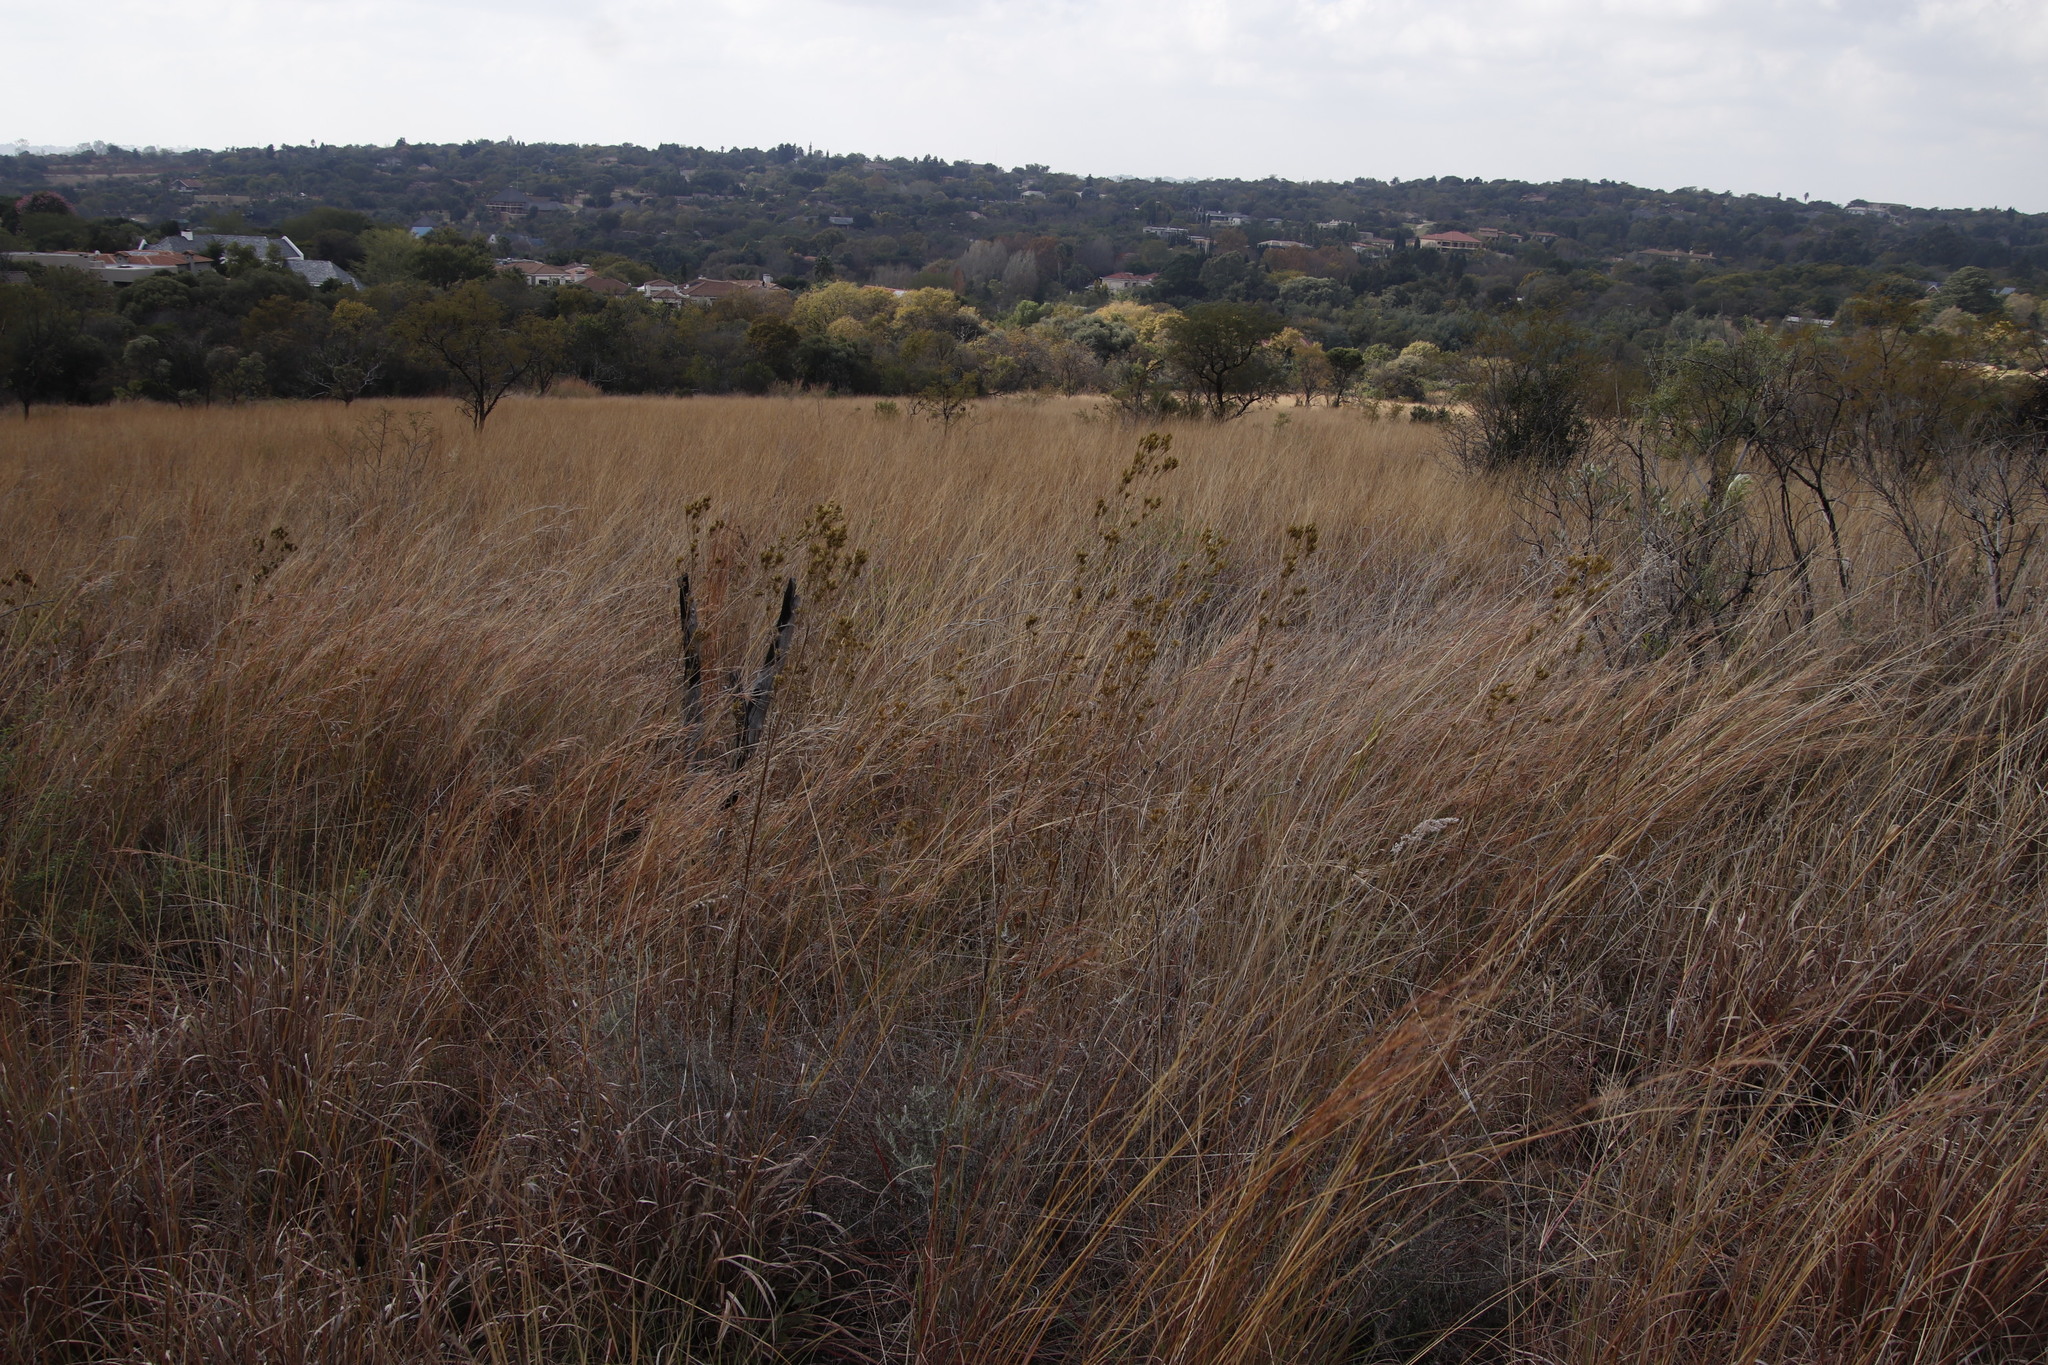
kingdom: Plantae
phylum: Tracheophyta
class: Magnoliopsida
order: Asterales
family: Asteraceae
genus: Tagetes
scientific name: Tagetes minuta
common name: Muster john henry
